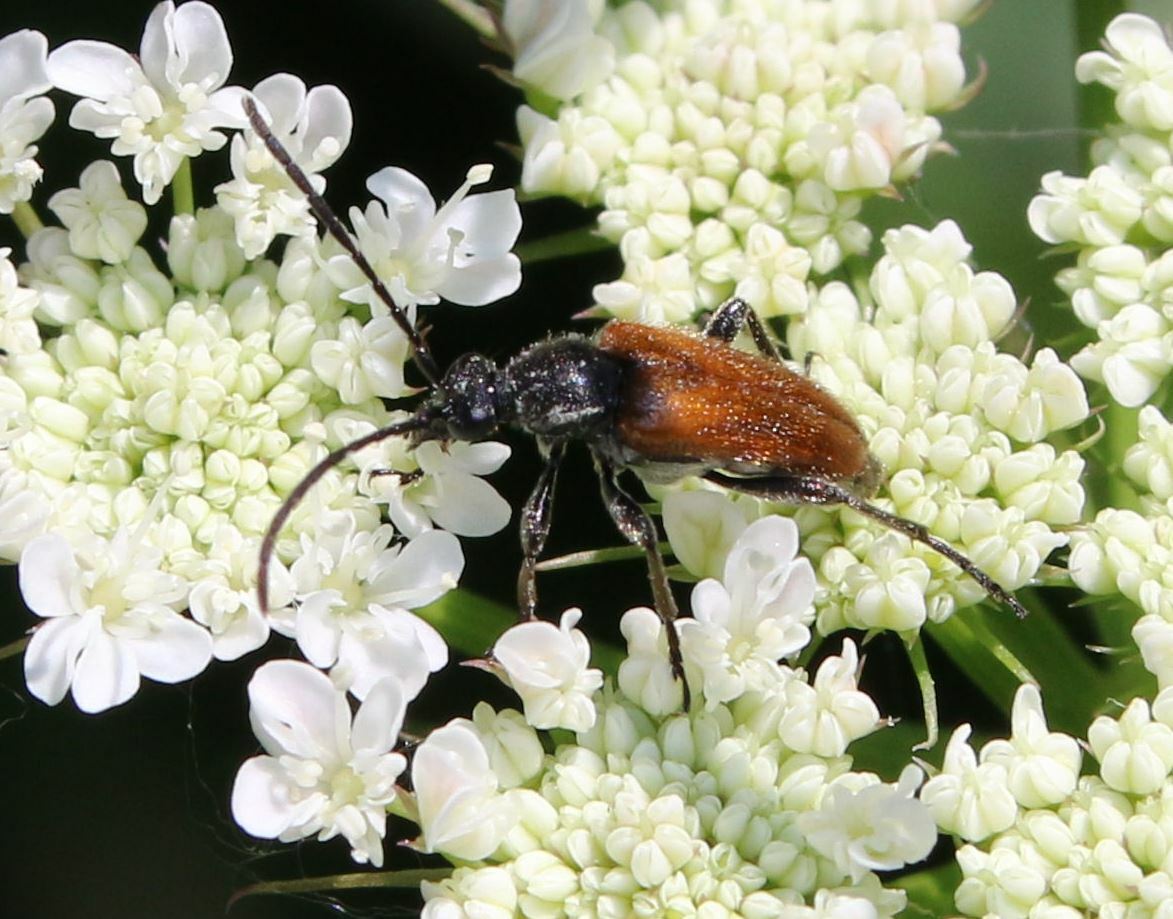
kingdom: Animalia
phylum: Arthropoda
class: Insecta
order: Coleoptera
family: Cerambycidae
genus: Pseudovadonia
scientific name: Pseudovadonia livida
